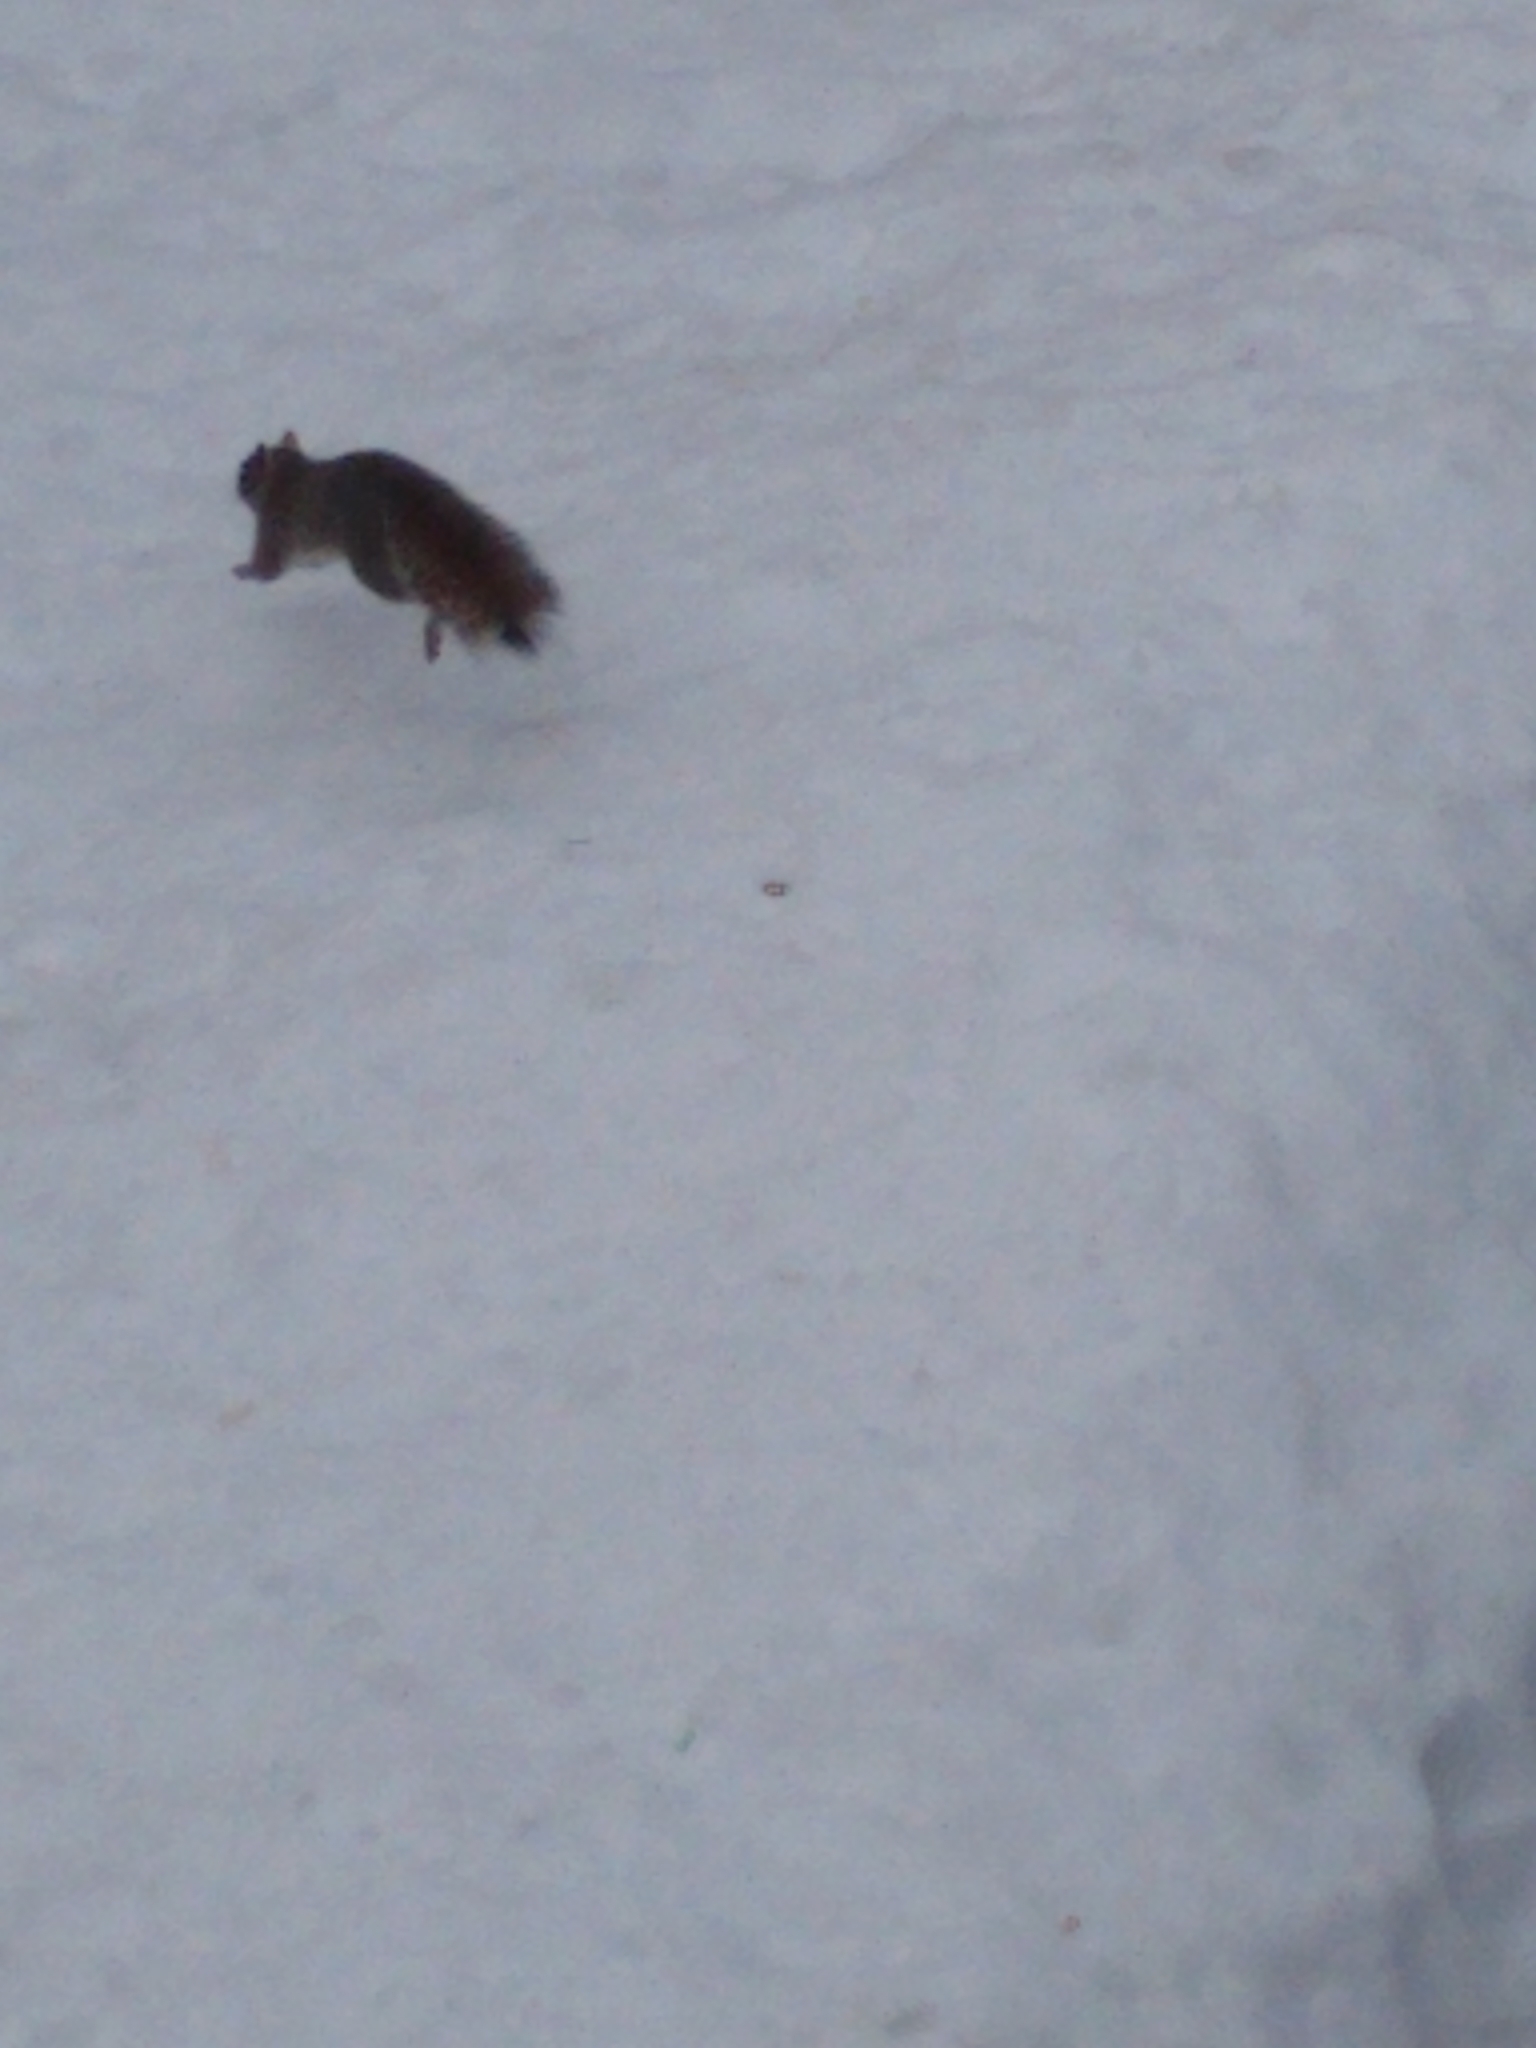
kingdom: Animalia
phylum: Chordata
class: Mammalia
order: Rodentia
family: Sciuridae
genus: Sciurus
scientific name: Sciurus carolinensis
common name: Eastern gray squirrel
